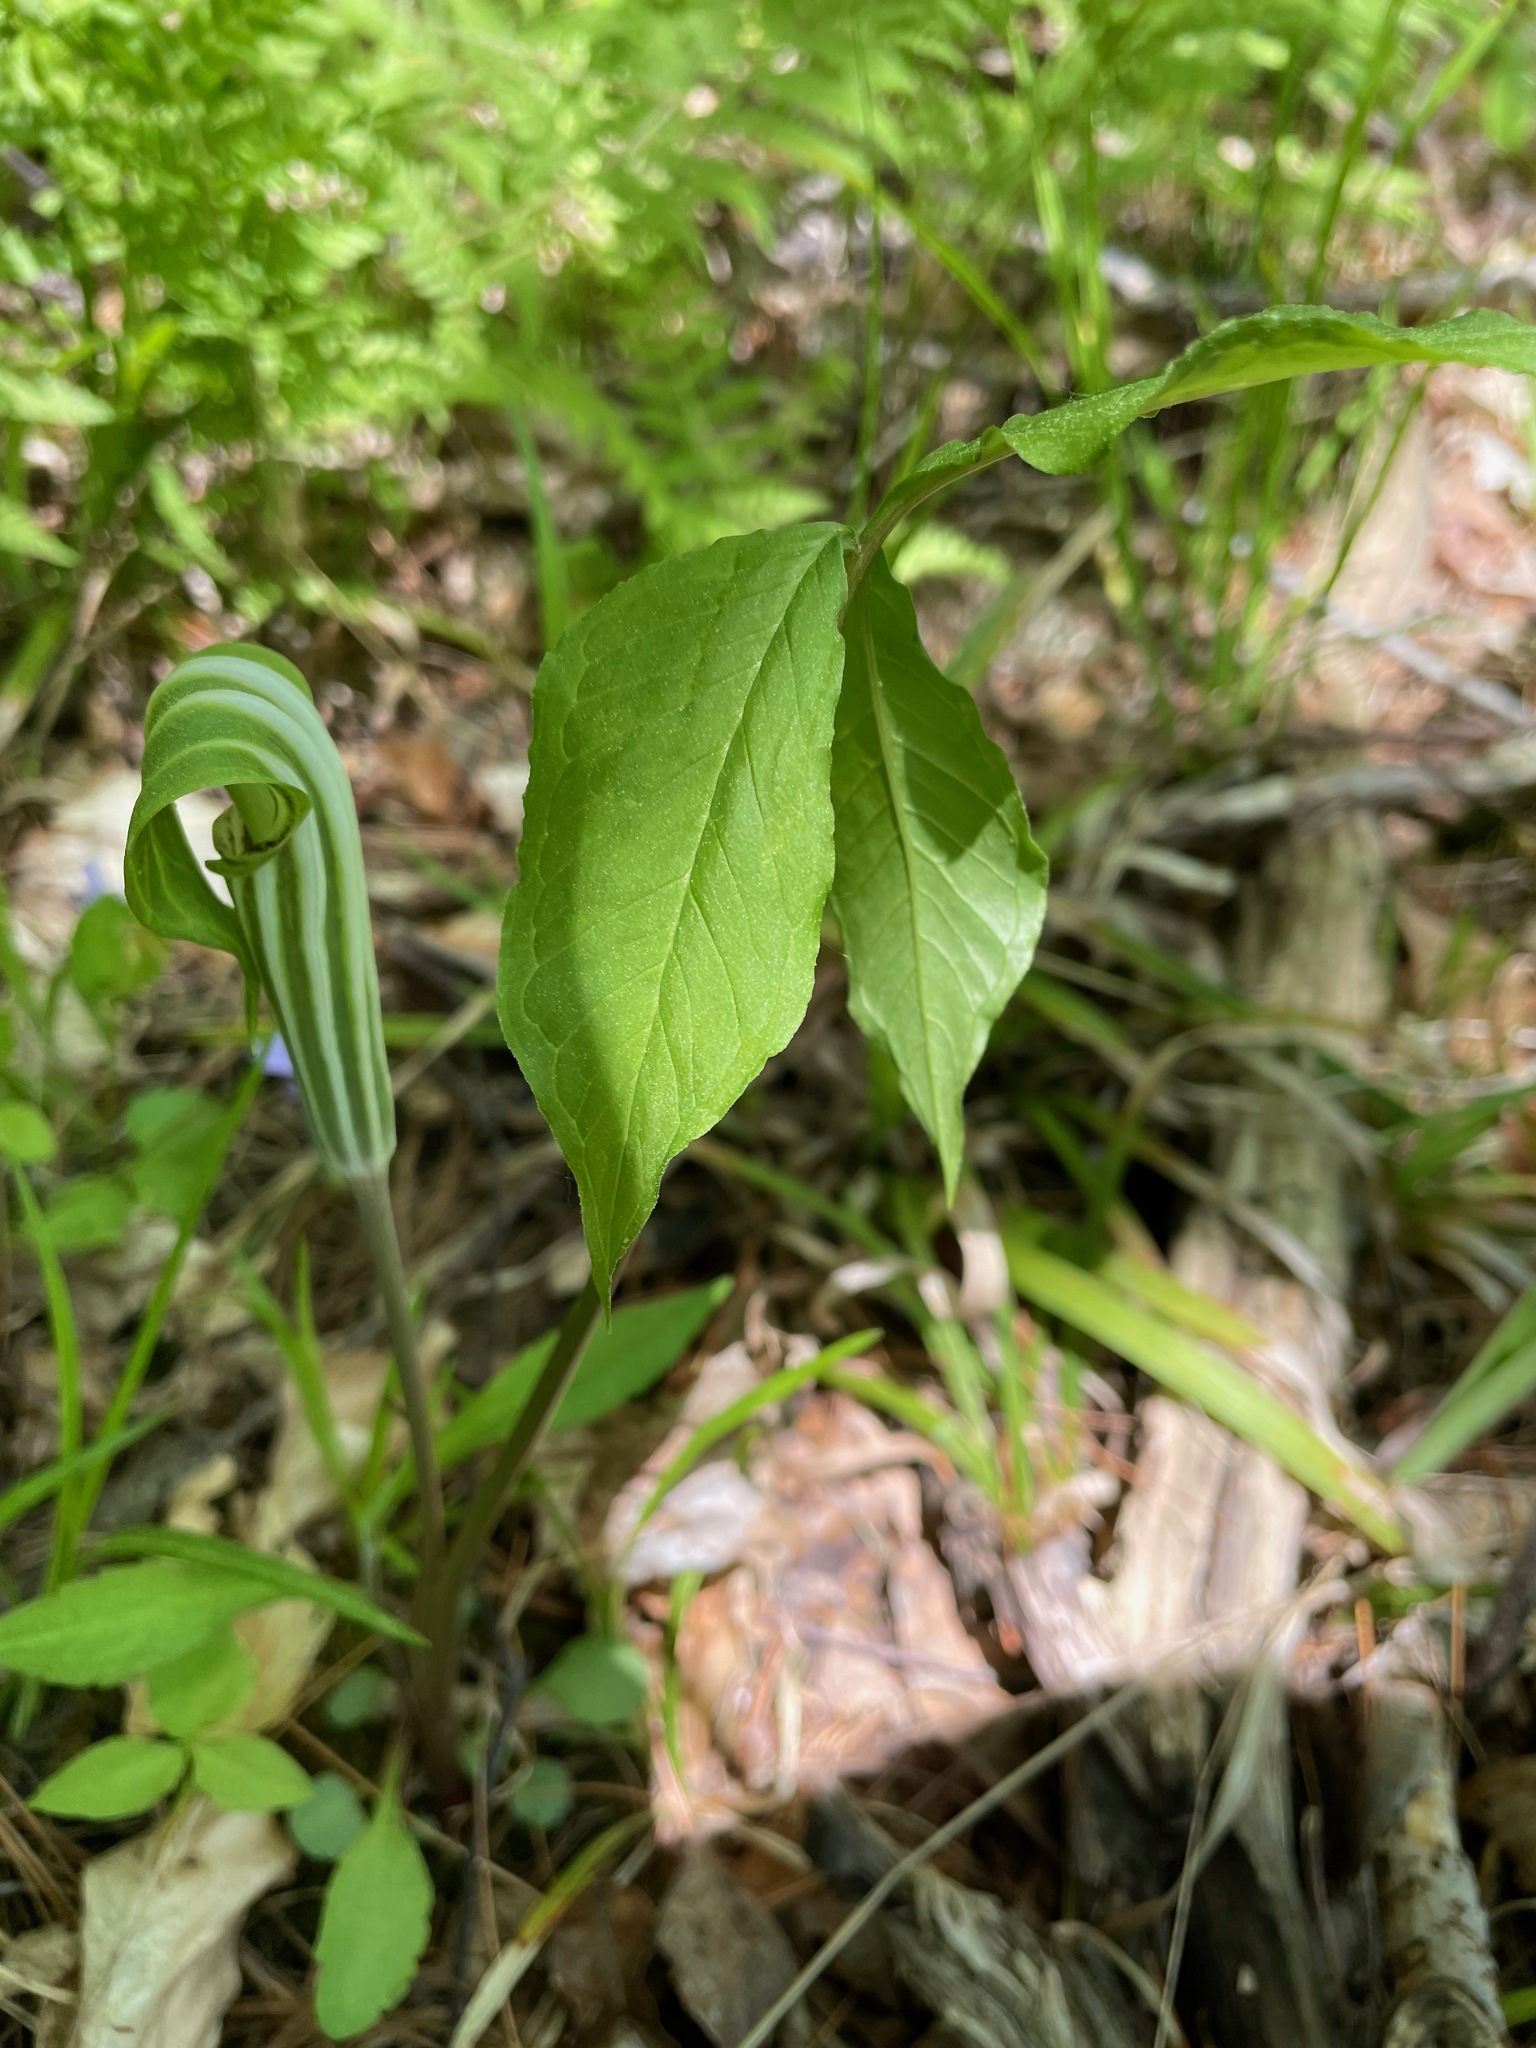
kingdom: Plantae
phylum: Tracheophyta
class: Liliopsida
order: Alismatales
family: Araceae
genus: Arisaema
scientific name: Arisaema stewardsonii
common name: Swamp jack-in-the-pulpit
